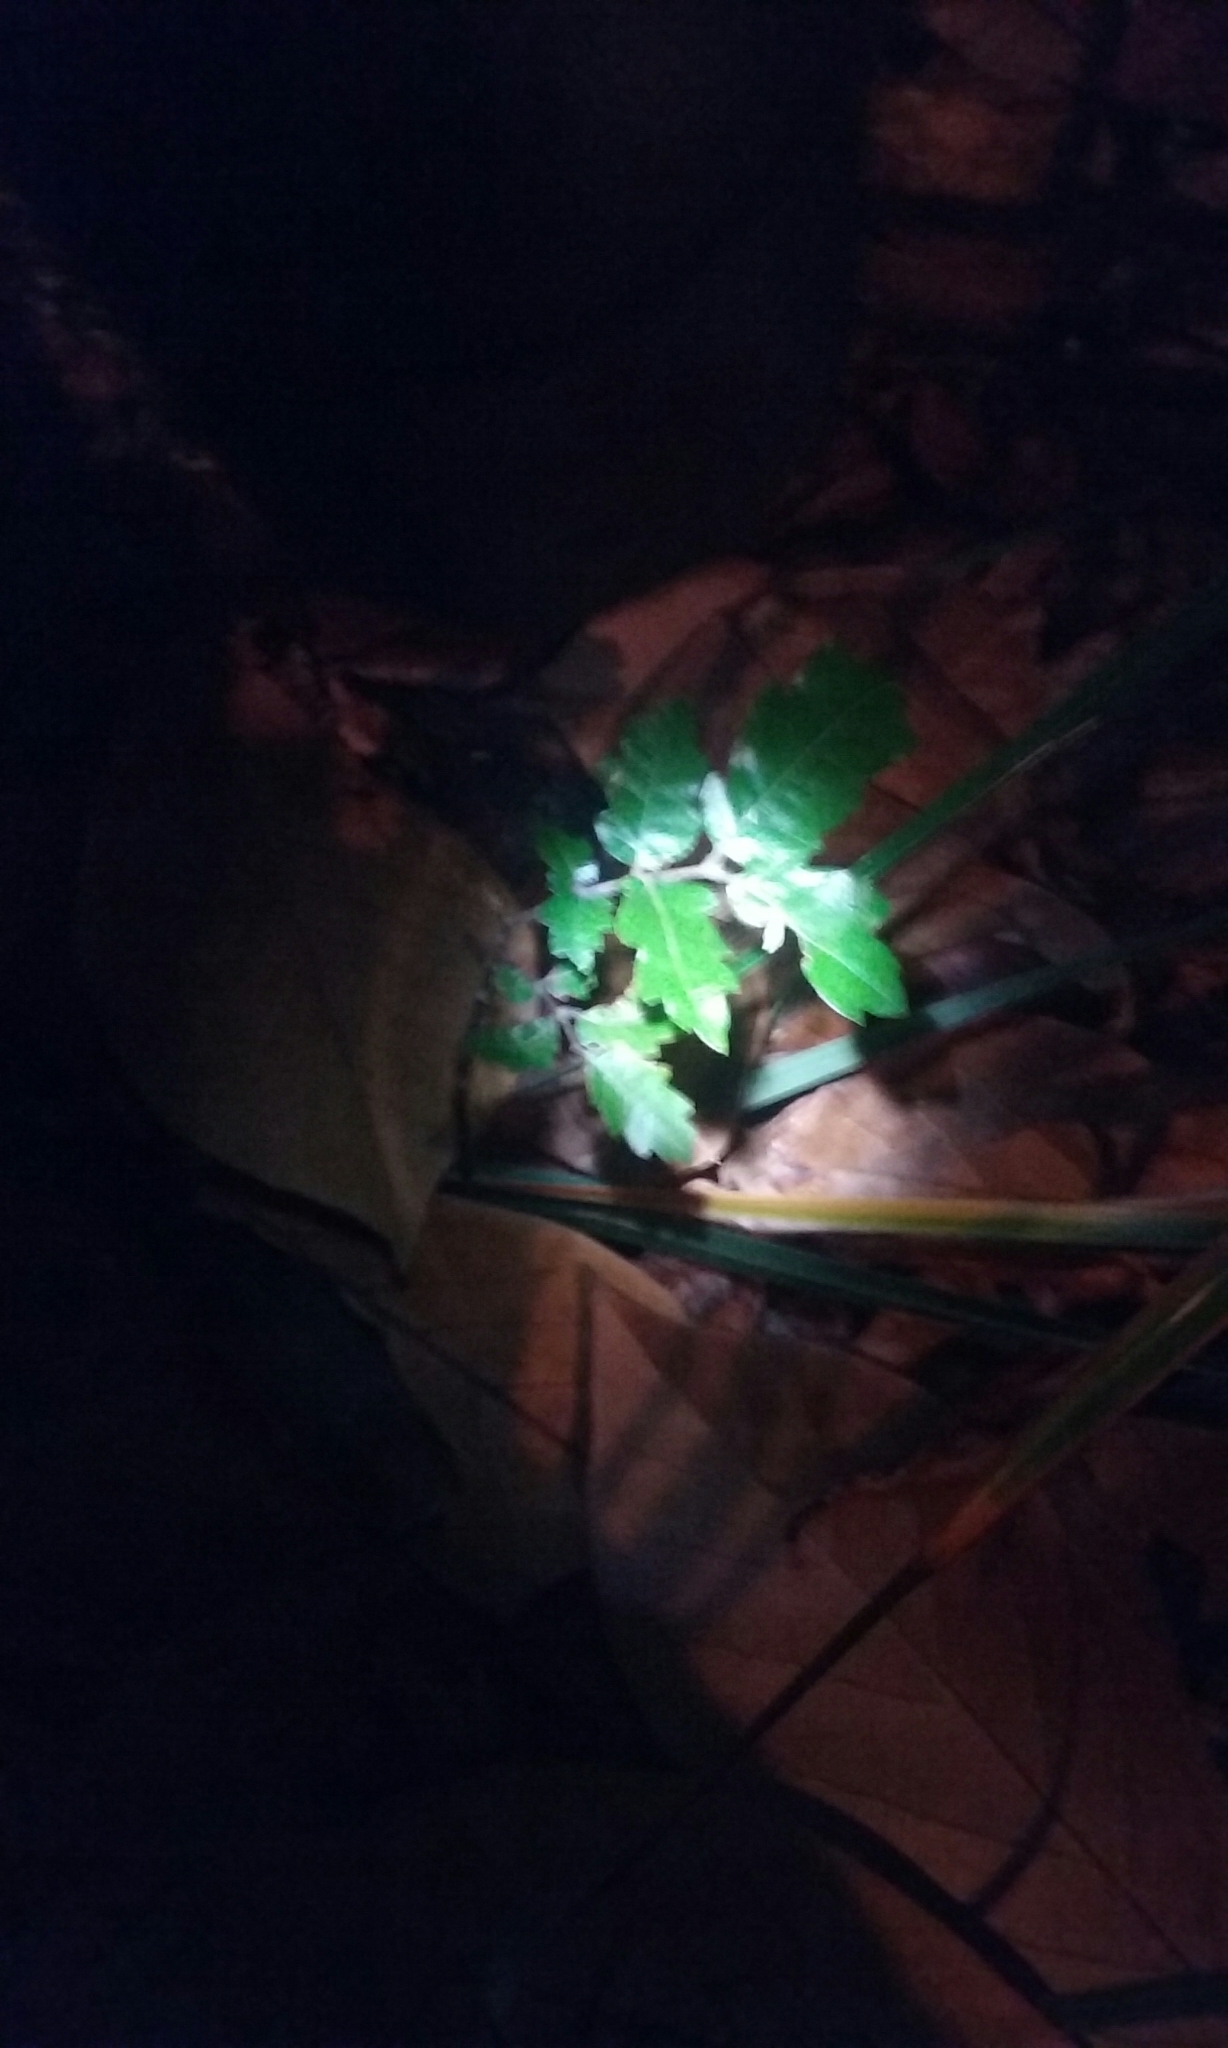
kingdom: Plantae
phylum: Tracheophyta
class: Magnoliopsida
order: Sapindales
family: Sapindaceae
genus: Alectryon
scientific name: Alectryon excelsus
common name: Three kings titoki
